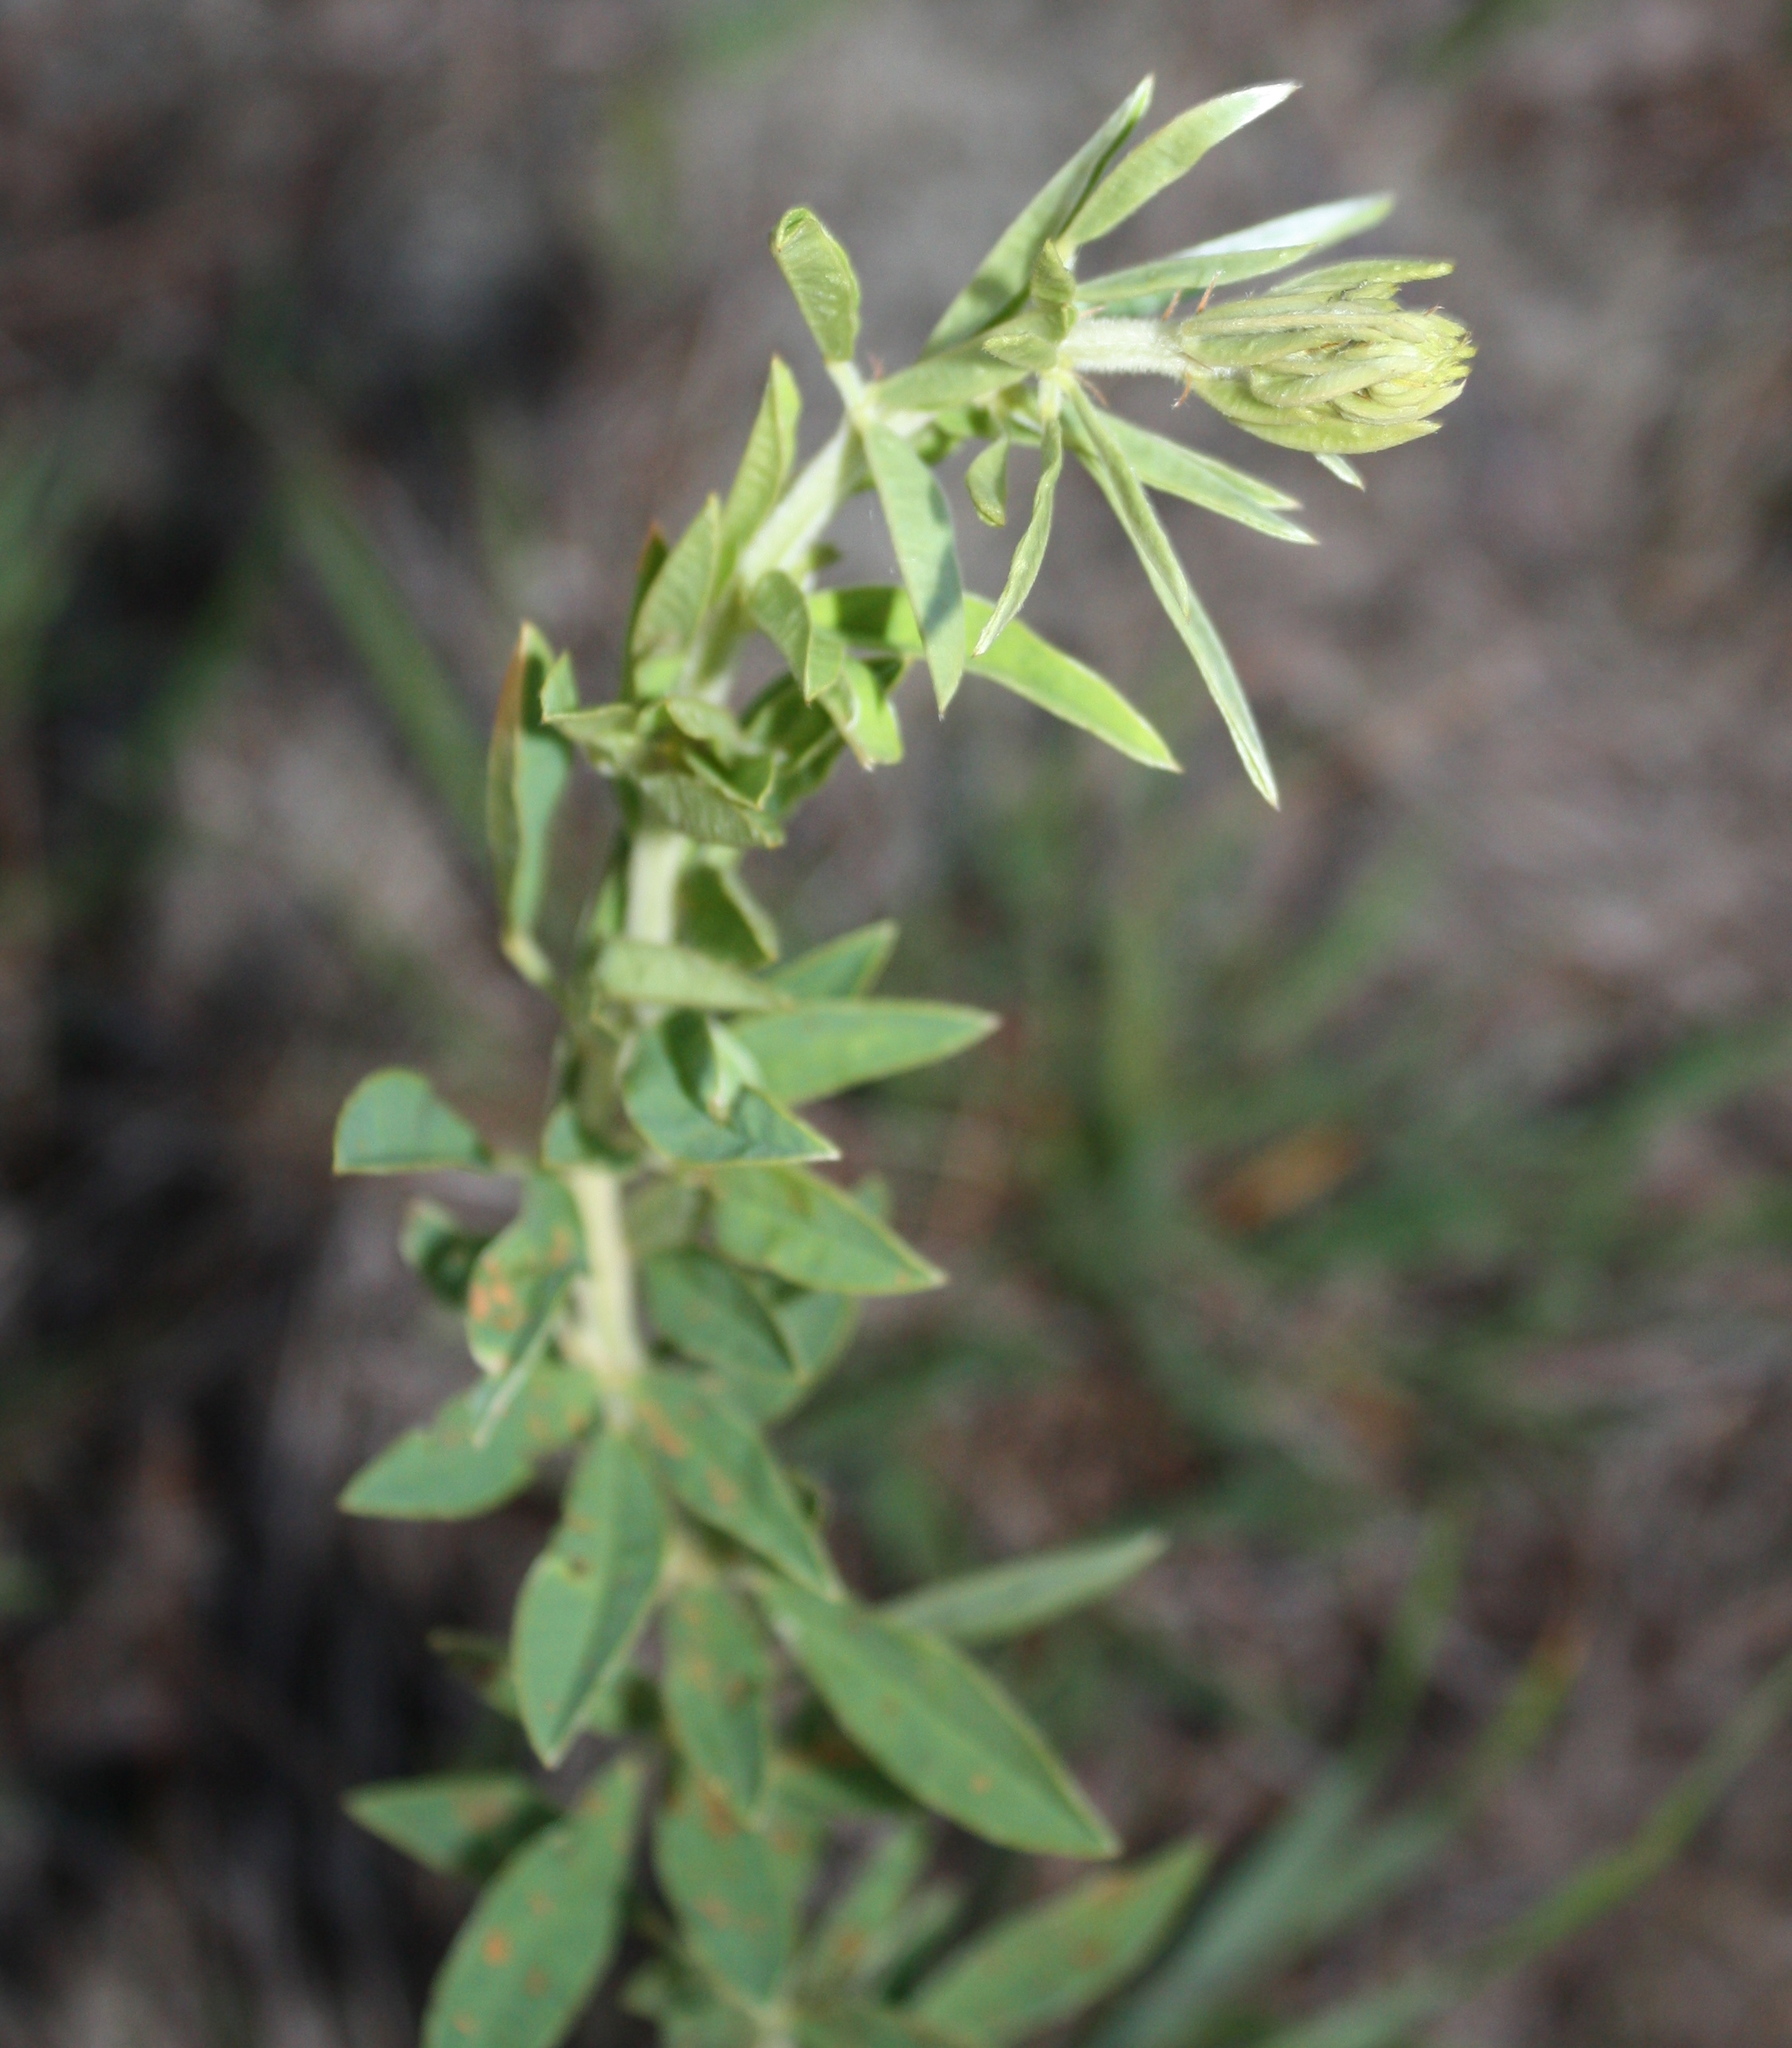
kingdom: Plantae
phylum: Tracheophyta
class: Magnoliopsida
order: Fabales
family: Fabaceae
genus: Lespedeza
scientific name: Lespedeza capitata
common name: Dusty clover
